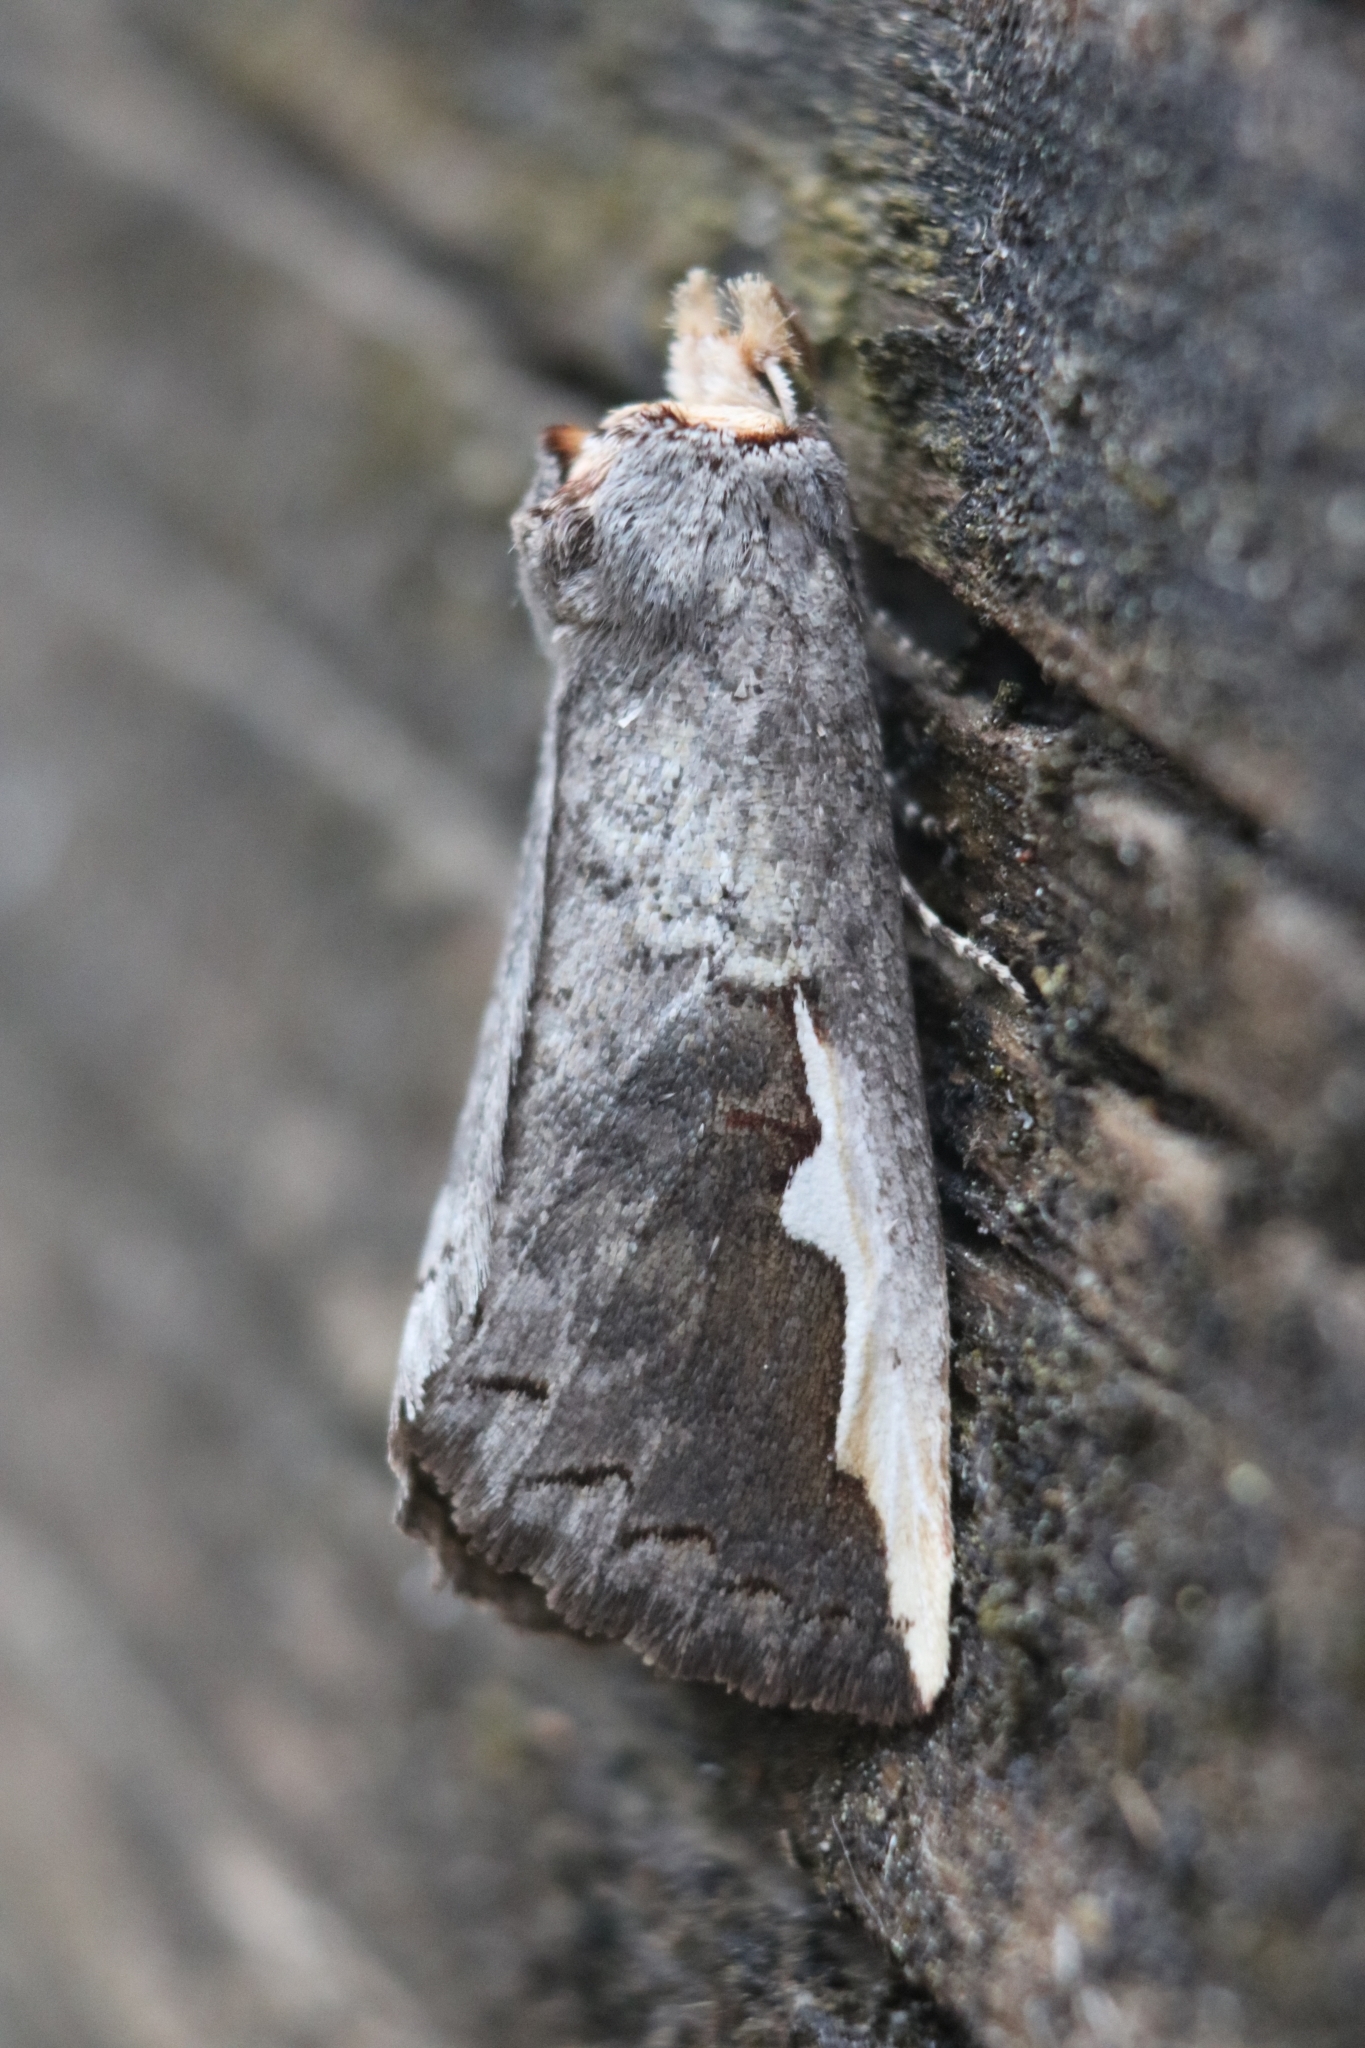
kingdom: Animalia
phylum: Arthropoda
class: Insecta
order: Lepidoptera
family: Notodontidae
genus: Symmerista
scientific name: Symmerista albifrons
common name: White-headed prominent
